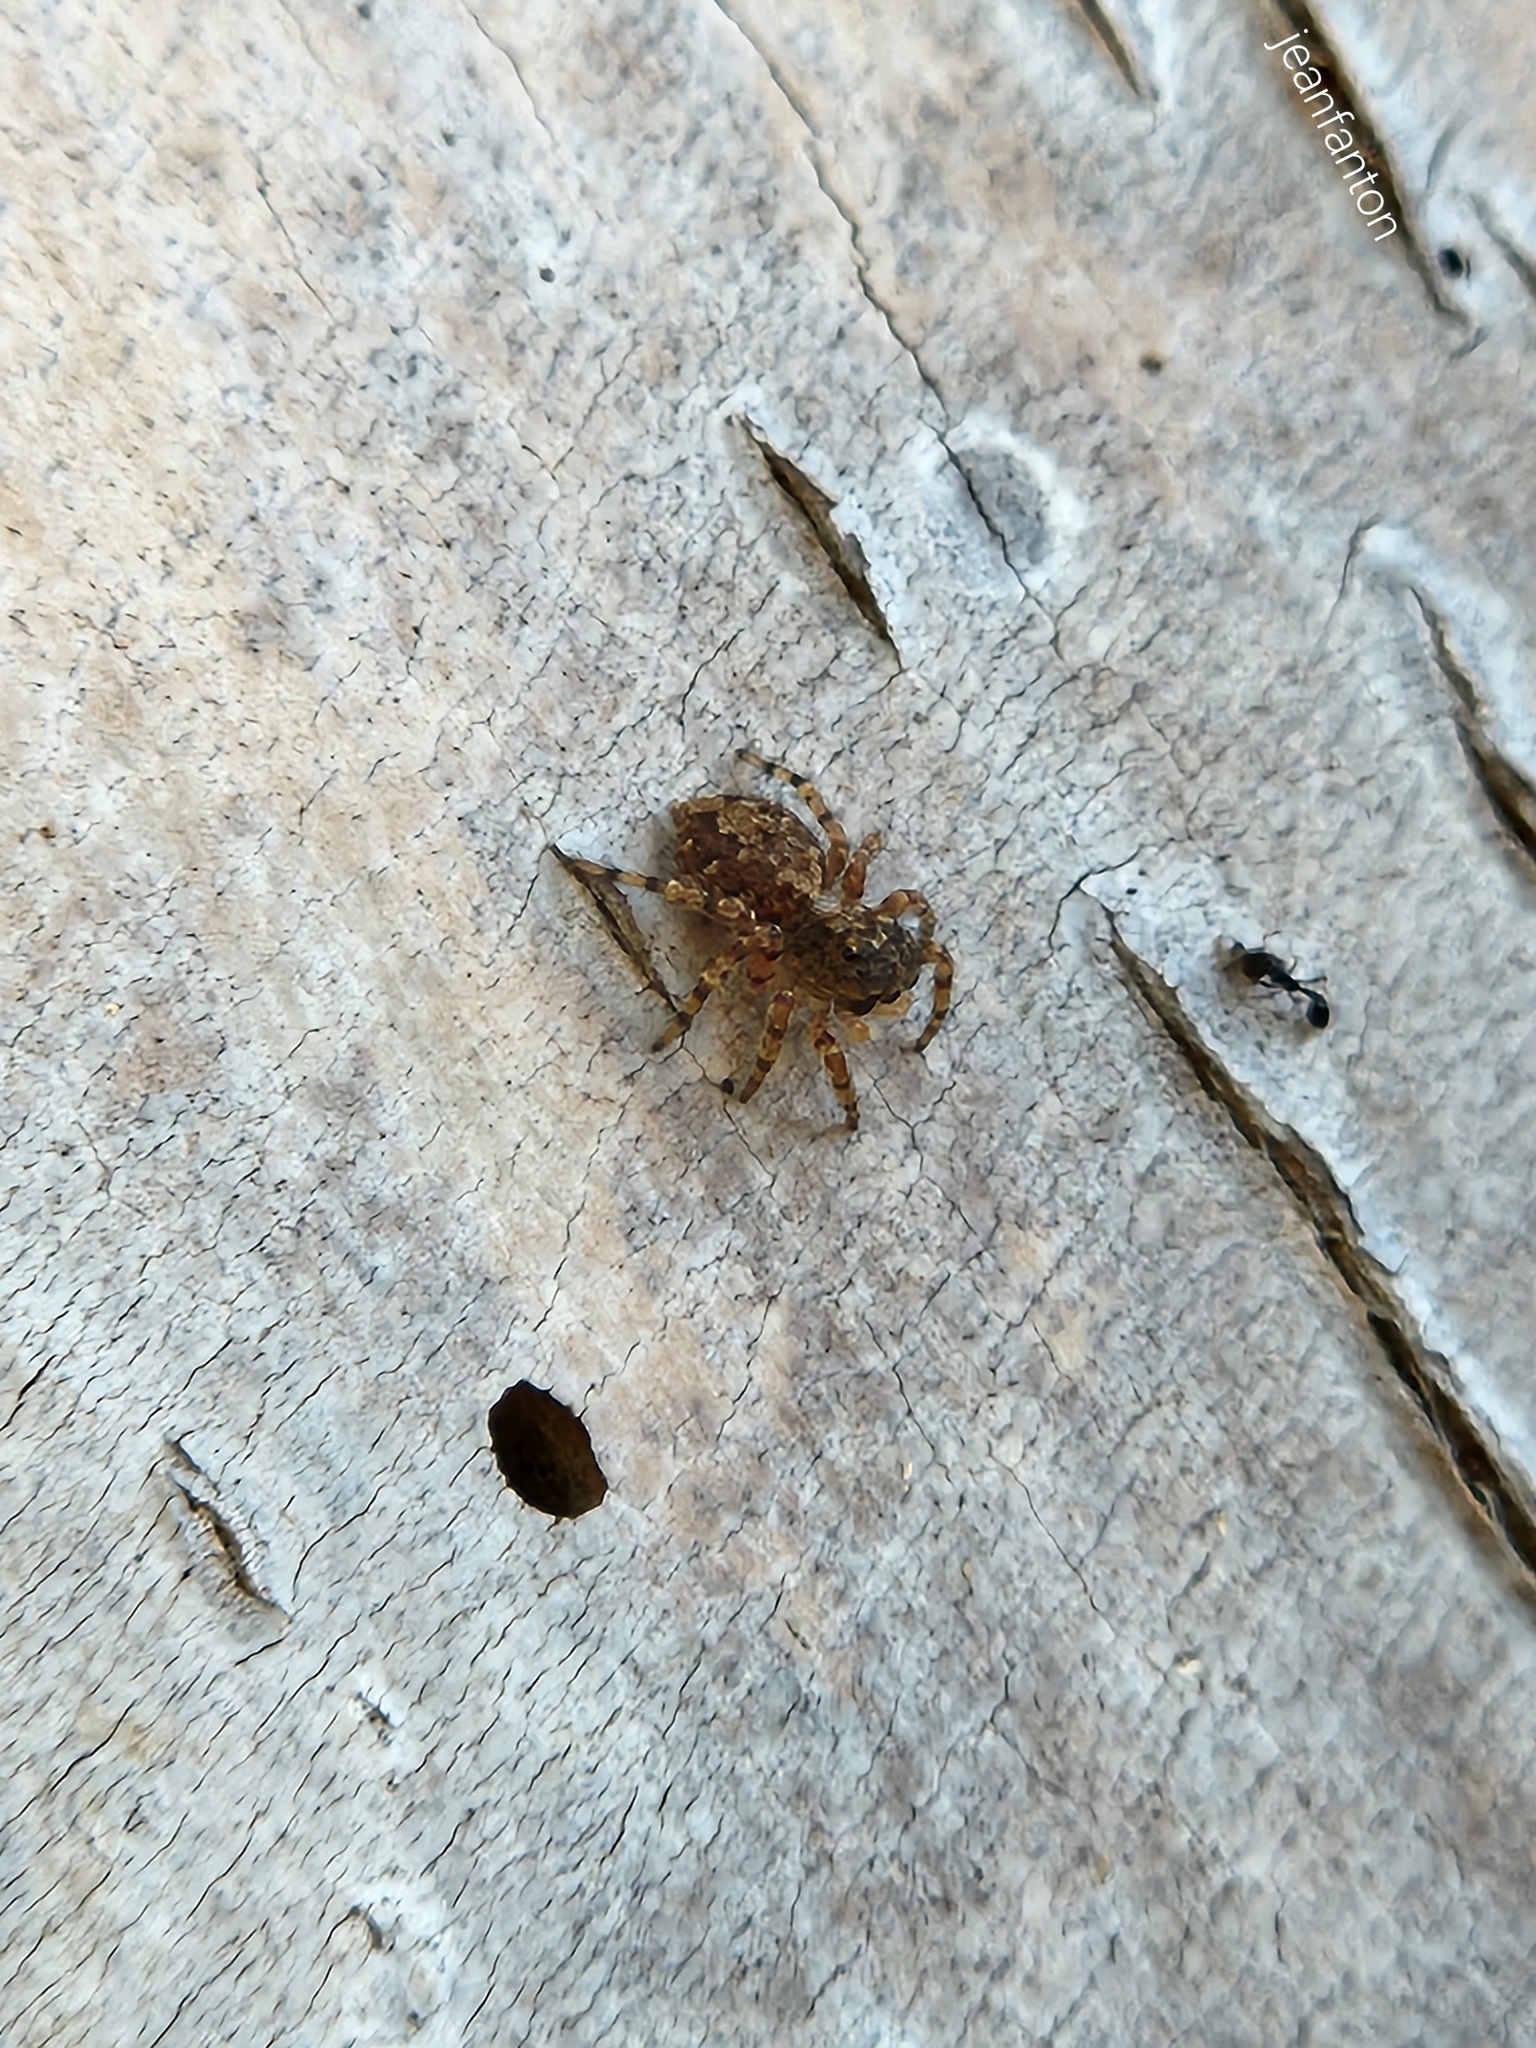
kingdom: Animalia
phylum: Arthropoda
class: Arachnida
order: Araneae
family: Salticidae
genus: Marma
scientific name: Marma nigritarsis
